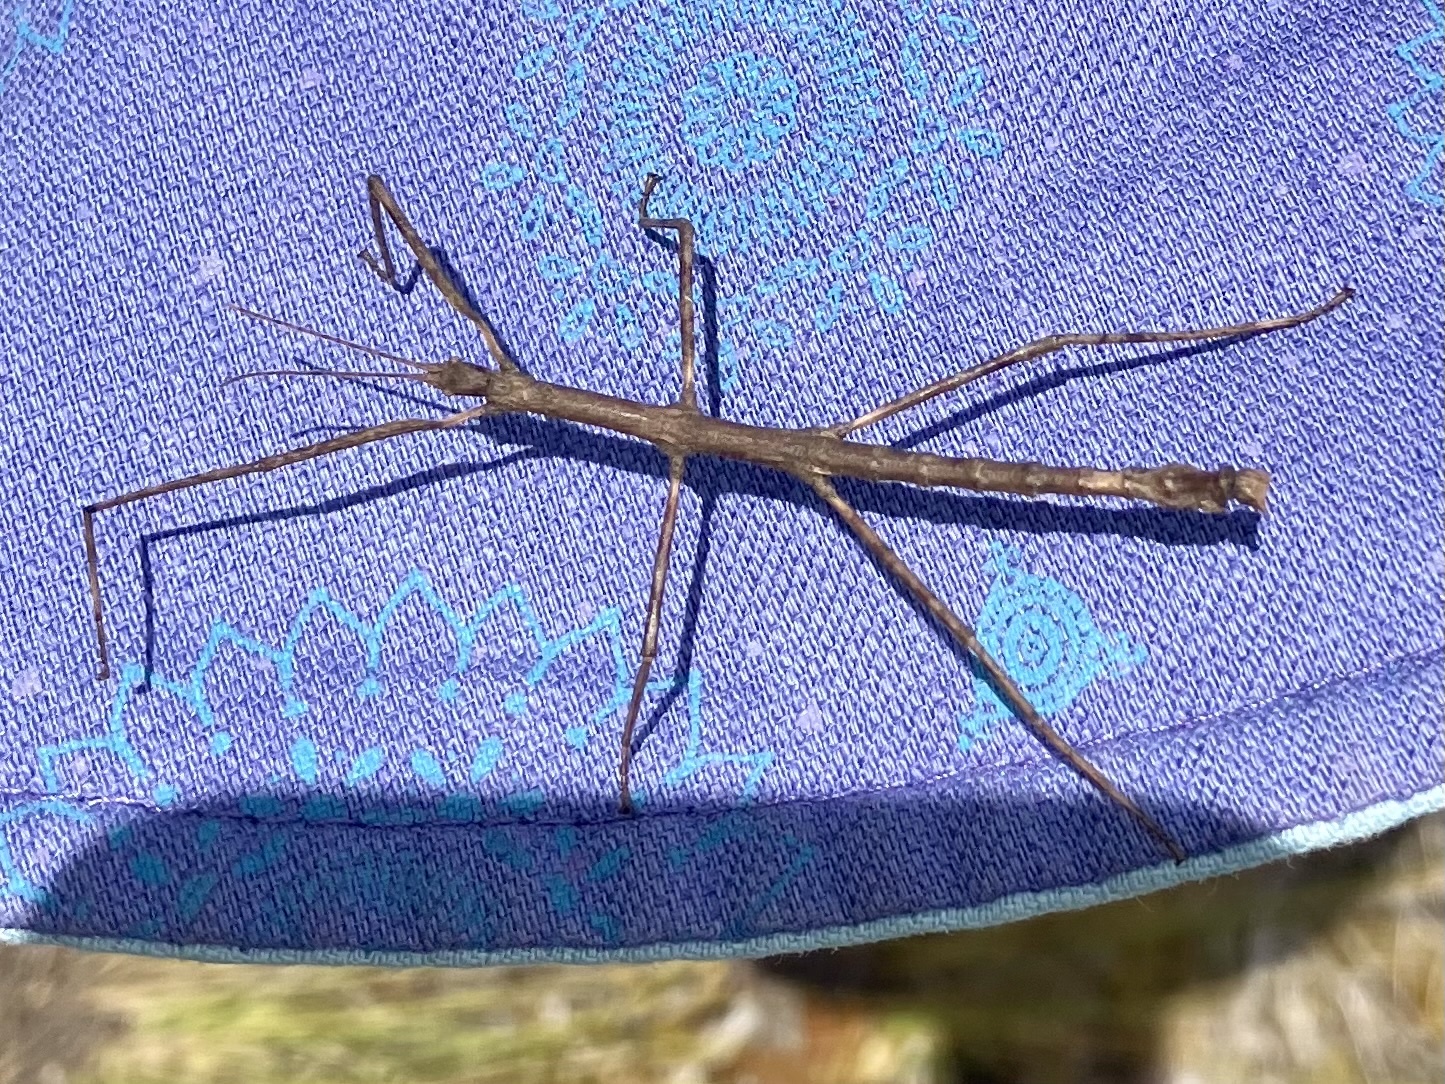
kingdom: Animalia
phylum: Arthropoda
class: Insecta
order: Phasmida
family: Phasmatidae
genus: Niveaphasma
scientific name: Niveaphasma annulatum
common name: Hutton's stick insect
